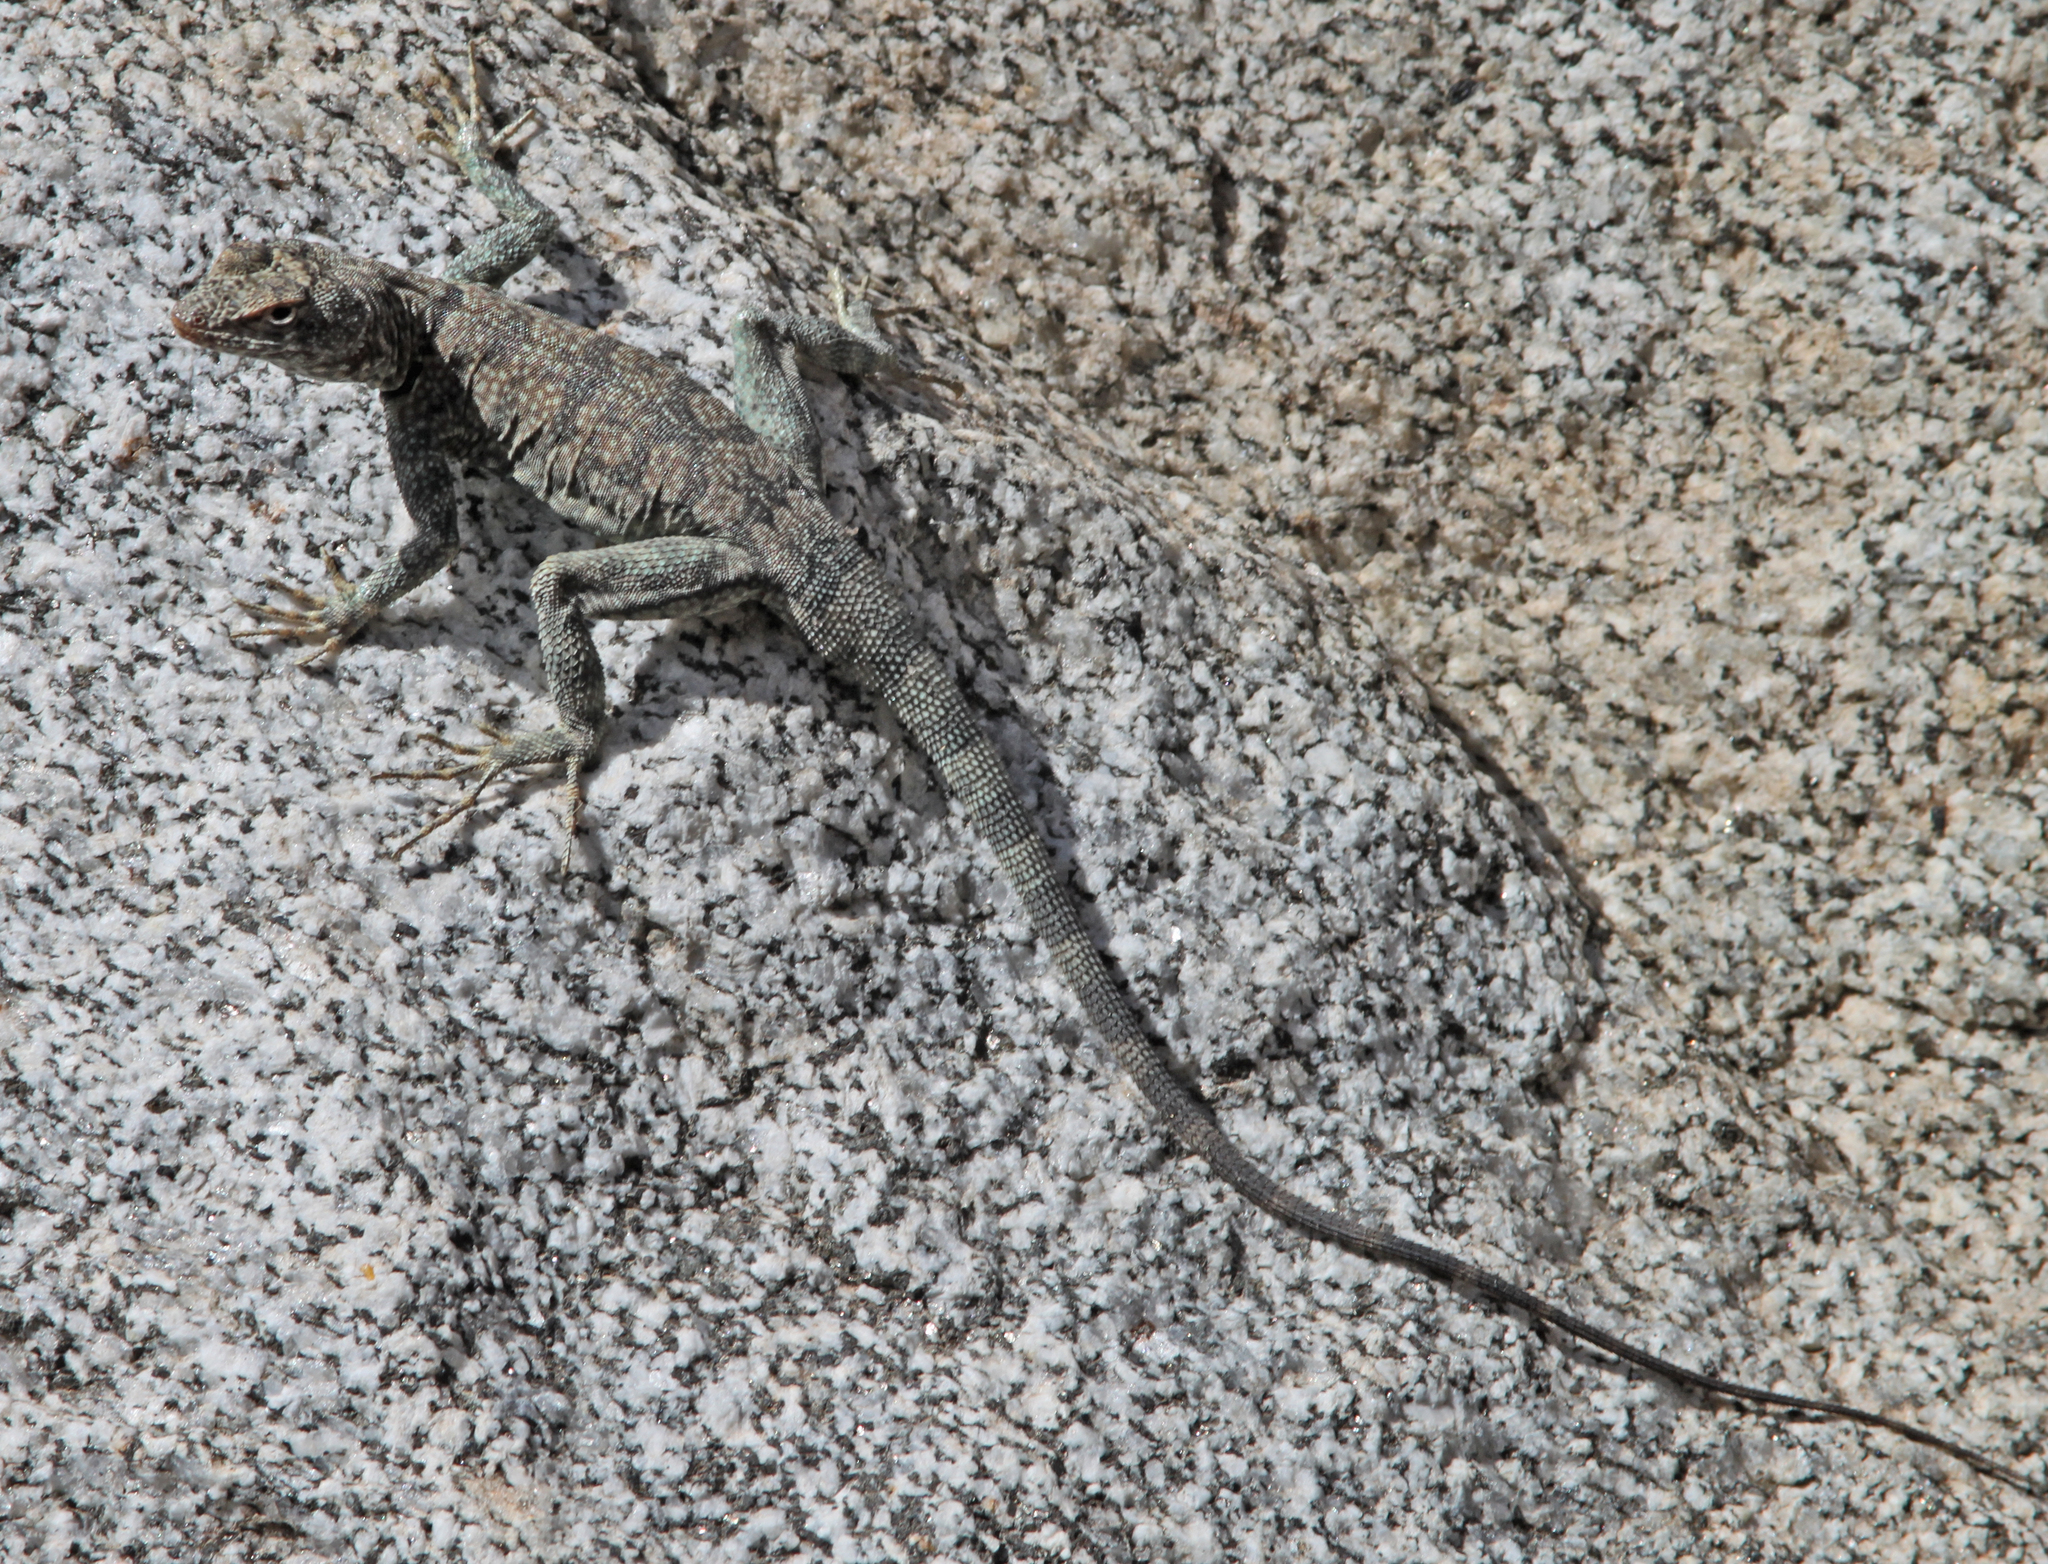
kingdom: Animalia
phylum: Chordata
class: Squamata
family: Phrynosomatidae
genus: Petrosaurus
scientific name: Petrosaurus mearnsi
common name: Banded rock lizard
